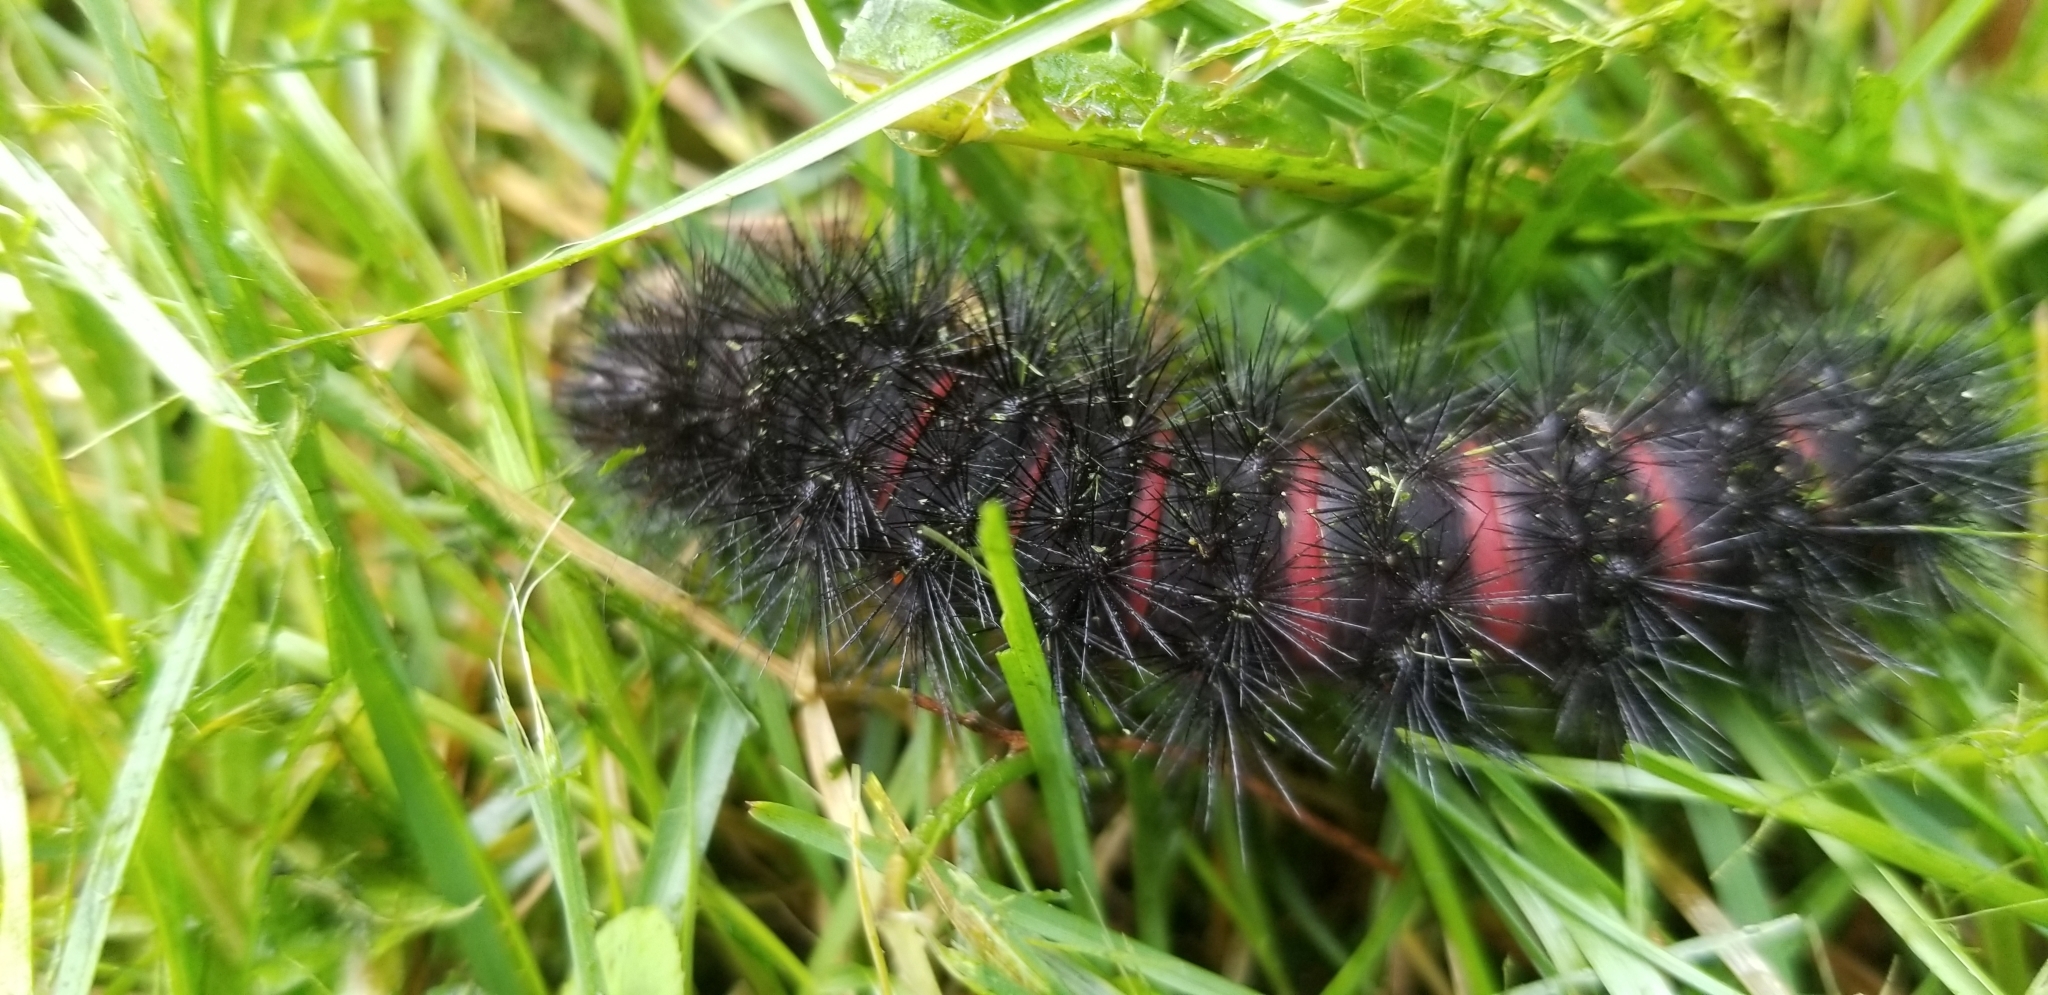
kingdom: Animalia
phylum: Arthropoda
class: Insecta
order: Lepidoptera
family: Erebidae
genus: Hypercompe
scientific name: Hypercompe scribonia
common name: Giant leopard moth
